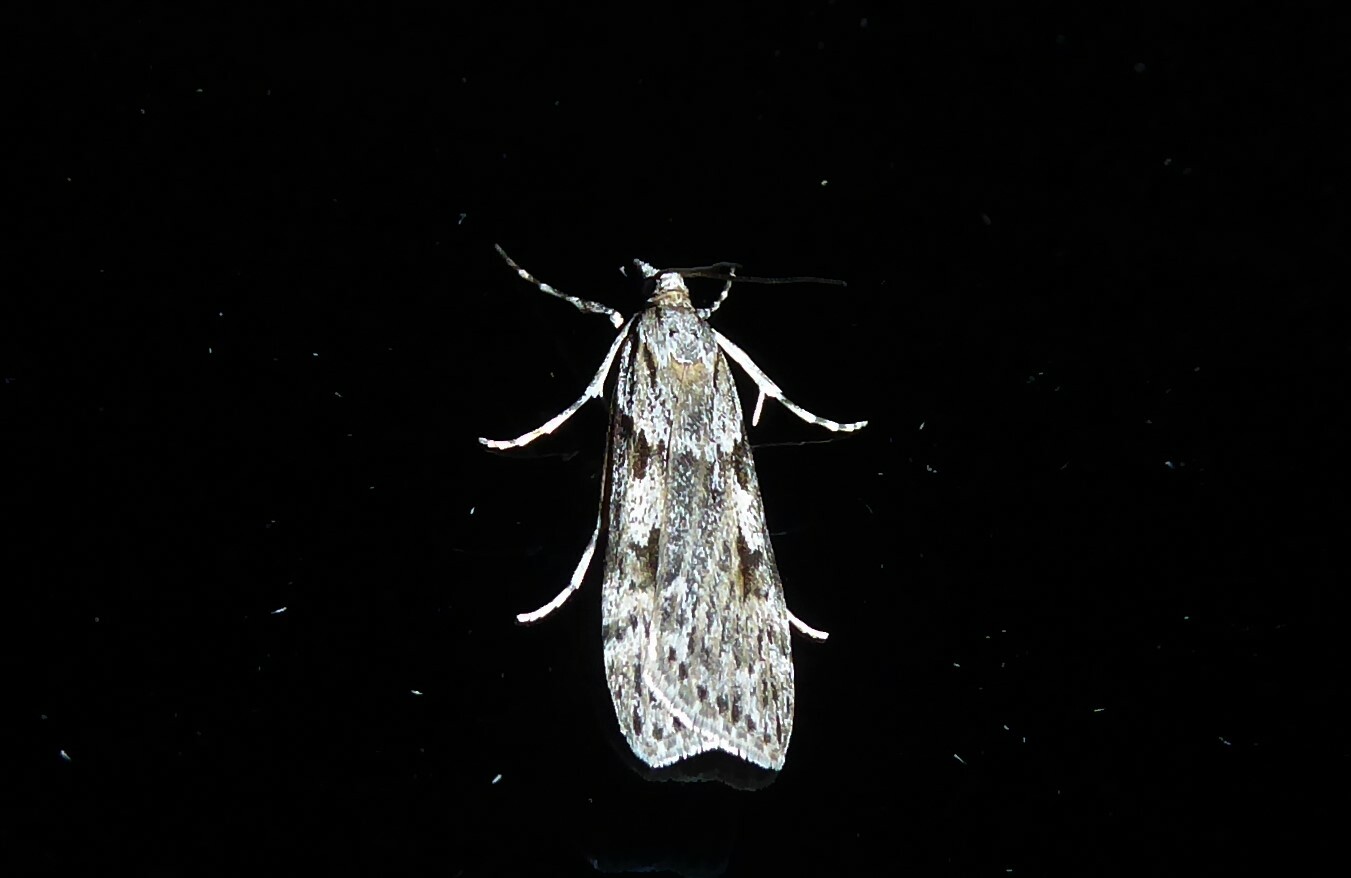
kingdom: Animalia
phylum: Arthropoda
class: Insecta
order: Lepidoptera
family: Crambidae
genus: Scoparia
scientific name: Scoparia halopis
